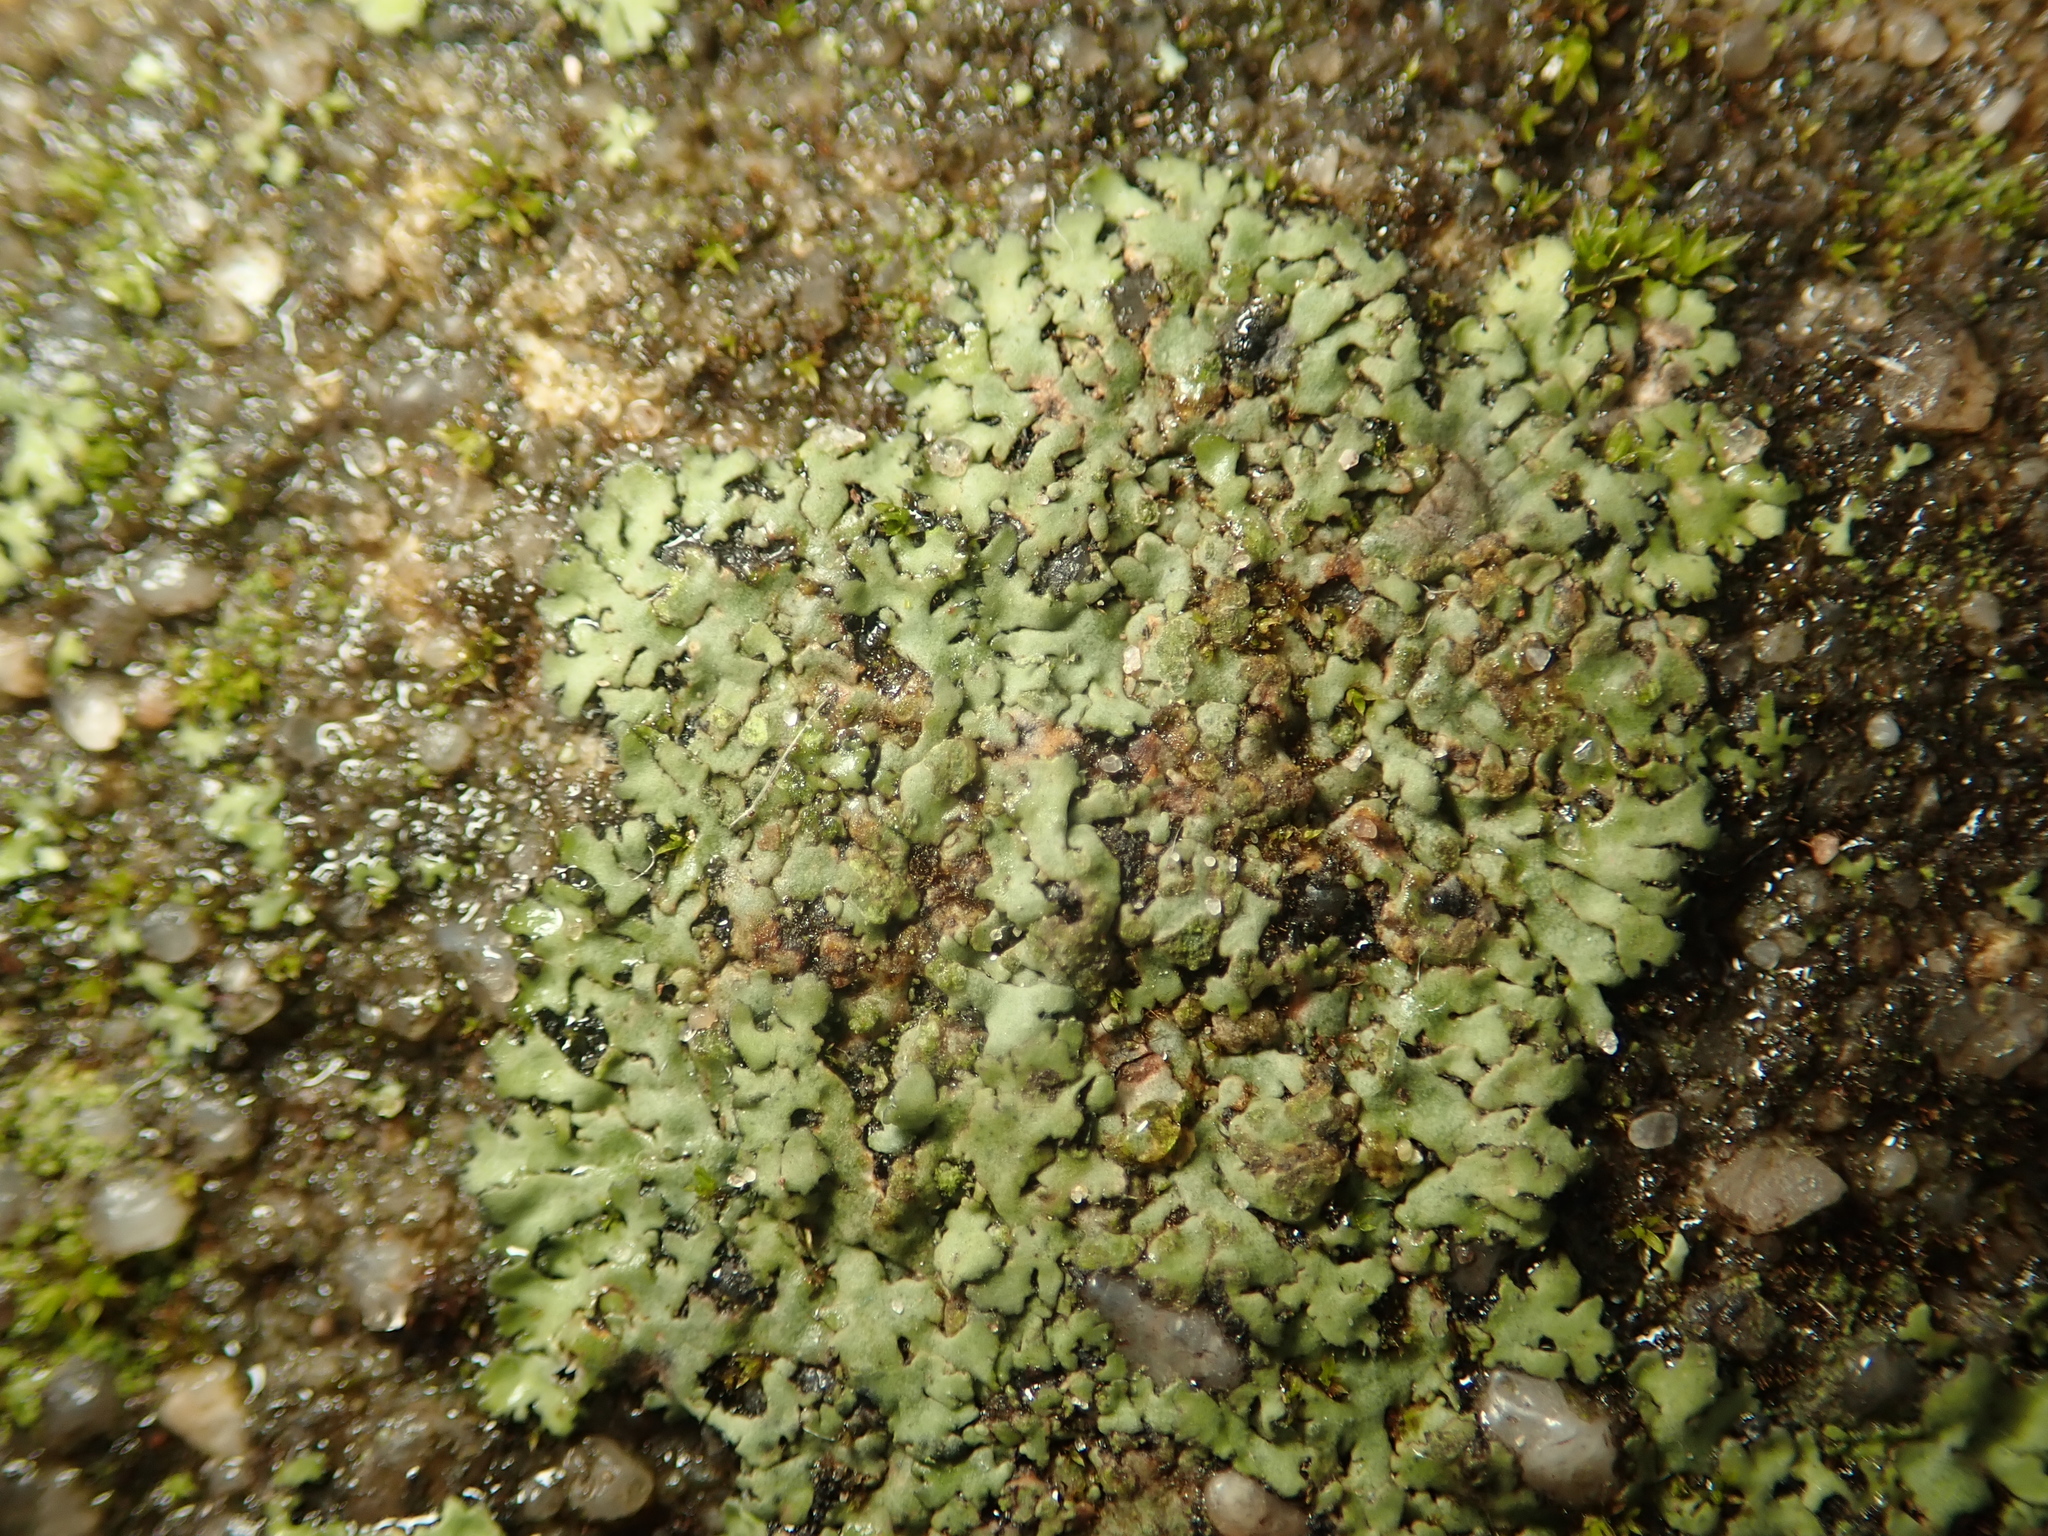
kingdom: Fungi
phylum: Ascomycota
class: Lecanoromycetes
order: Caliciales
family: Physciaceae
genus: Phaeophyscia
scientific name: Phaeophyscia orbicularis
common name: Mealy shadow lichen
